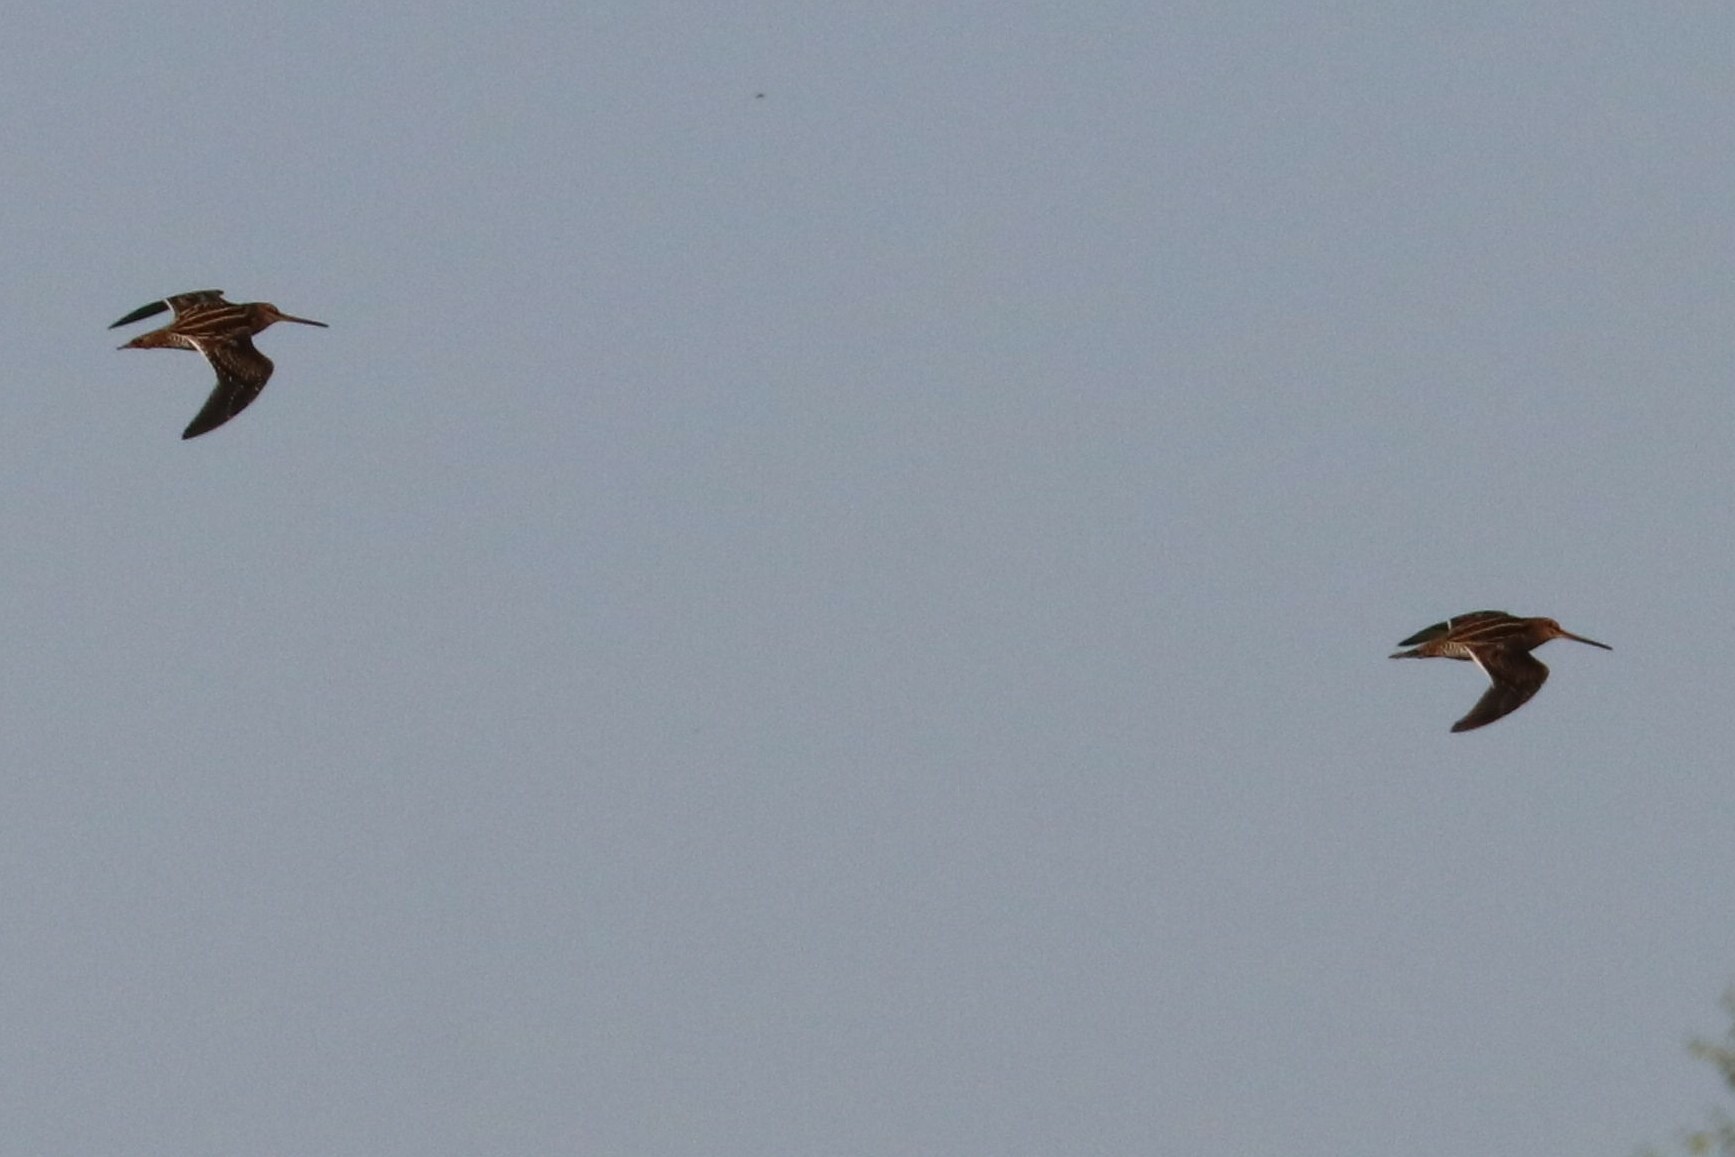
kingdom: Animalia
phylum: Chordata
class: Aves
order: Charadriiformes
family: Scolopacidae
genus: Gallinago
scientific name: Gallinago gallinago
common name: Common snipe
